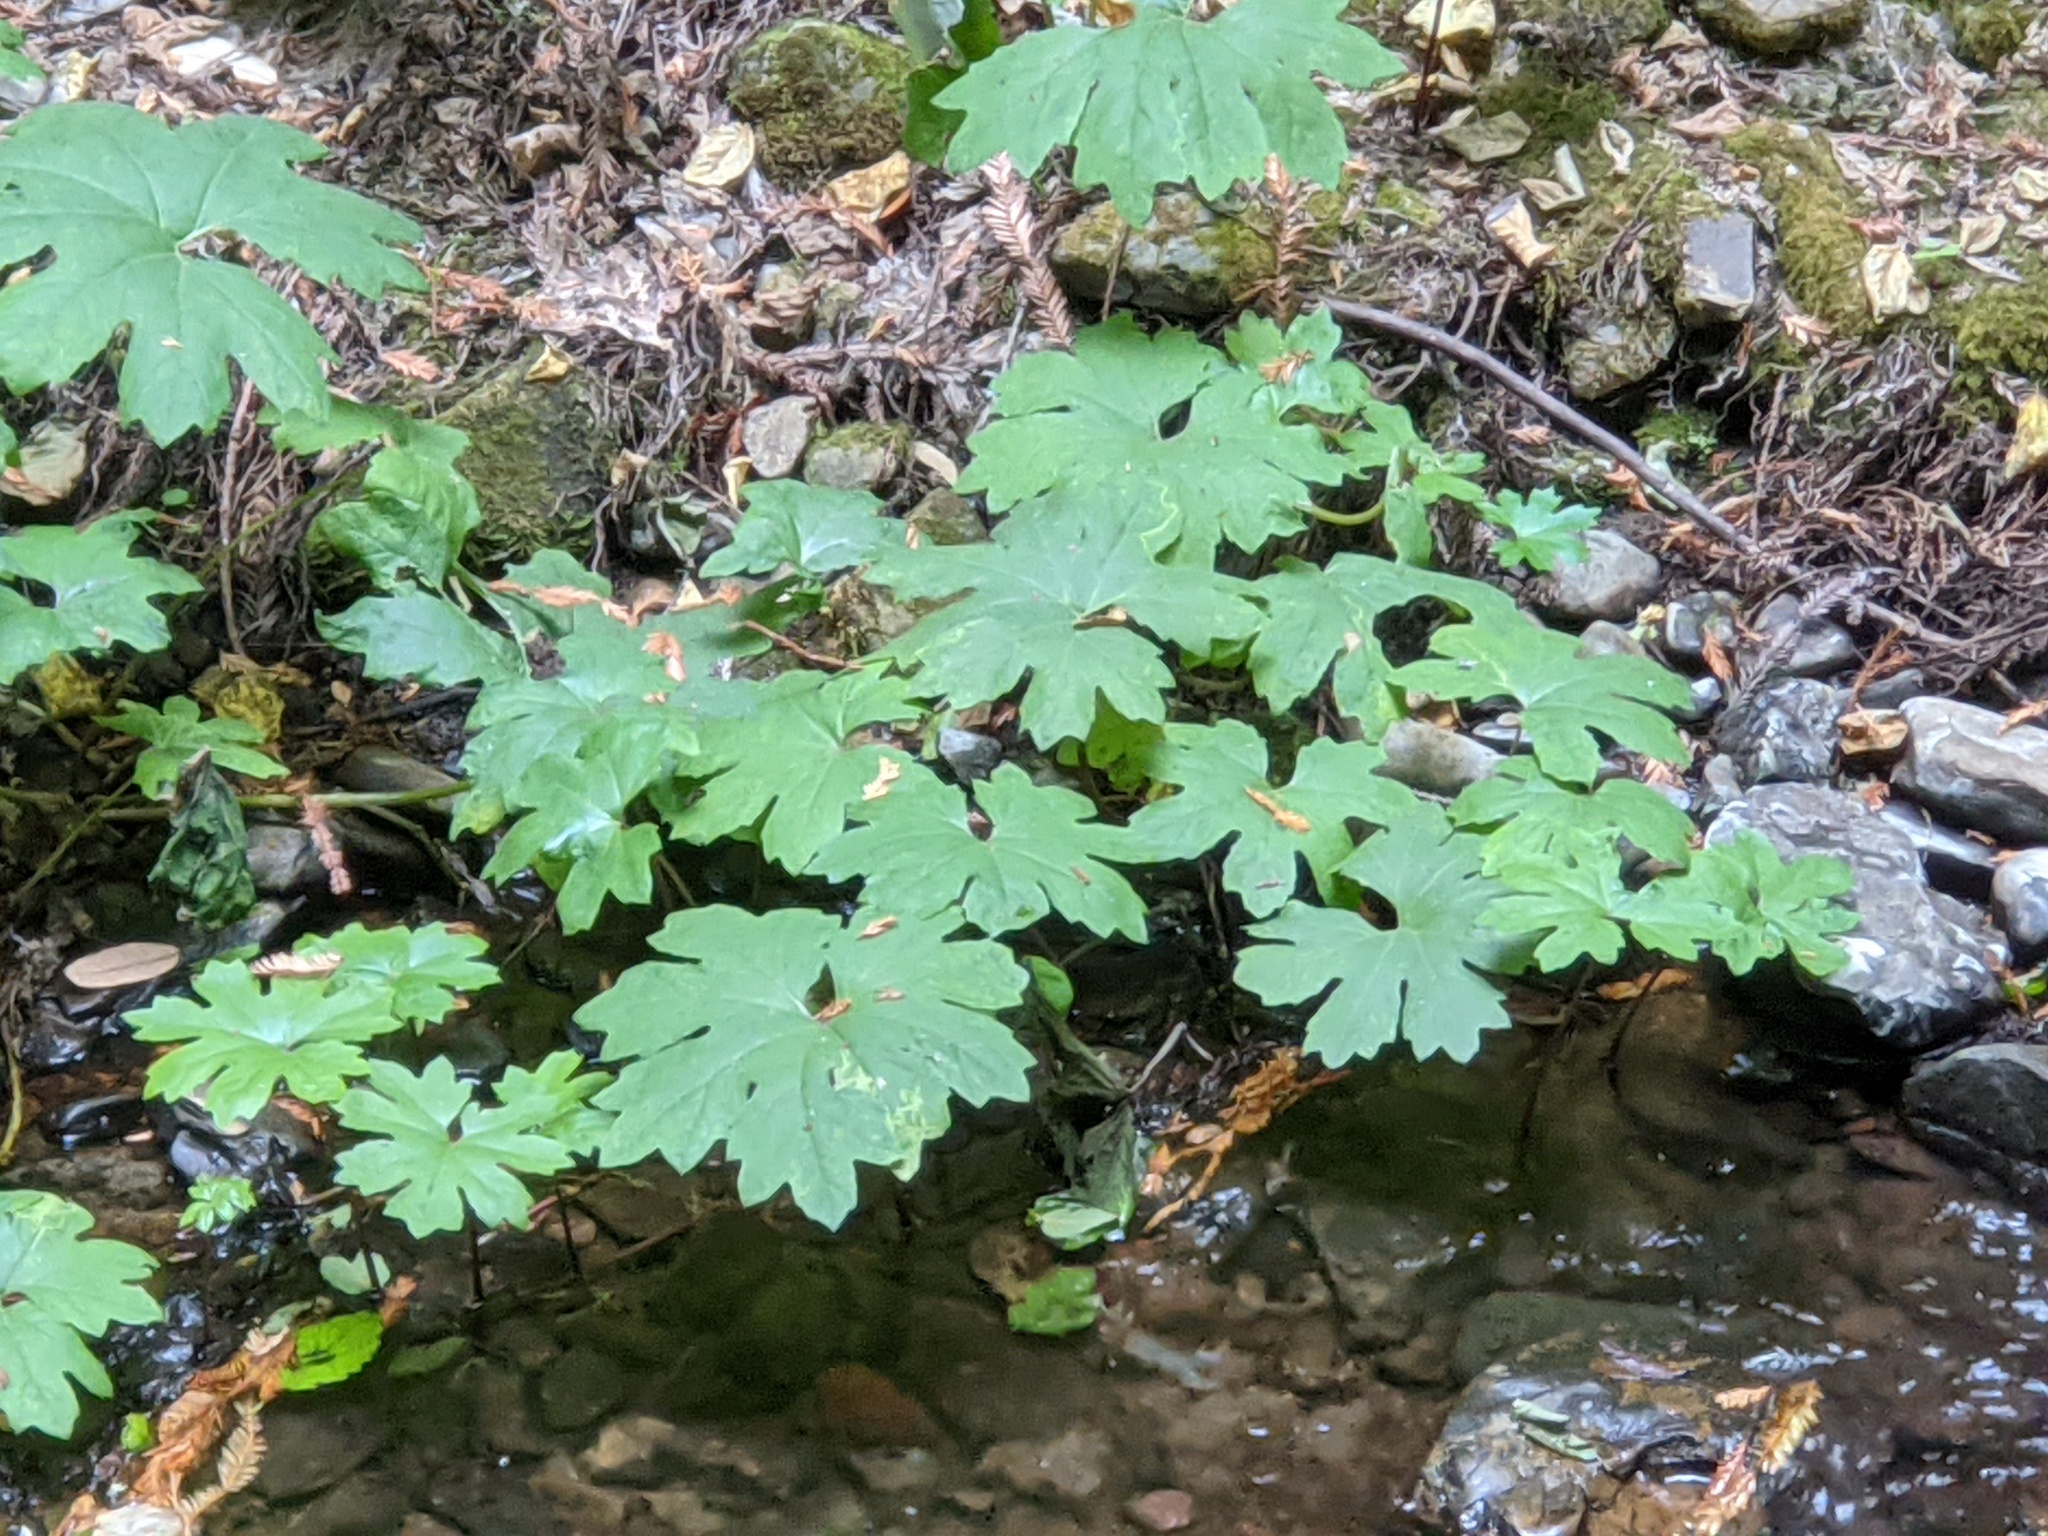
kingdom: Plantae
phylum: Tracheophyta
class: Magnoliopsida
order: Asterales
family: Asteraceae
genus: Petasites
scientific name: Petasites frigidus
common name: Arctic butterbur
